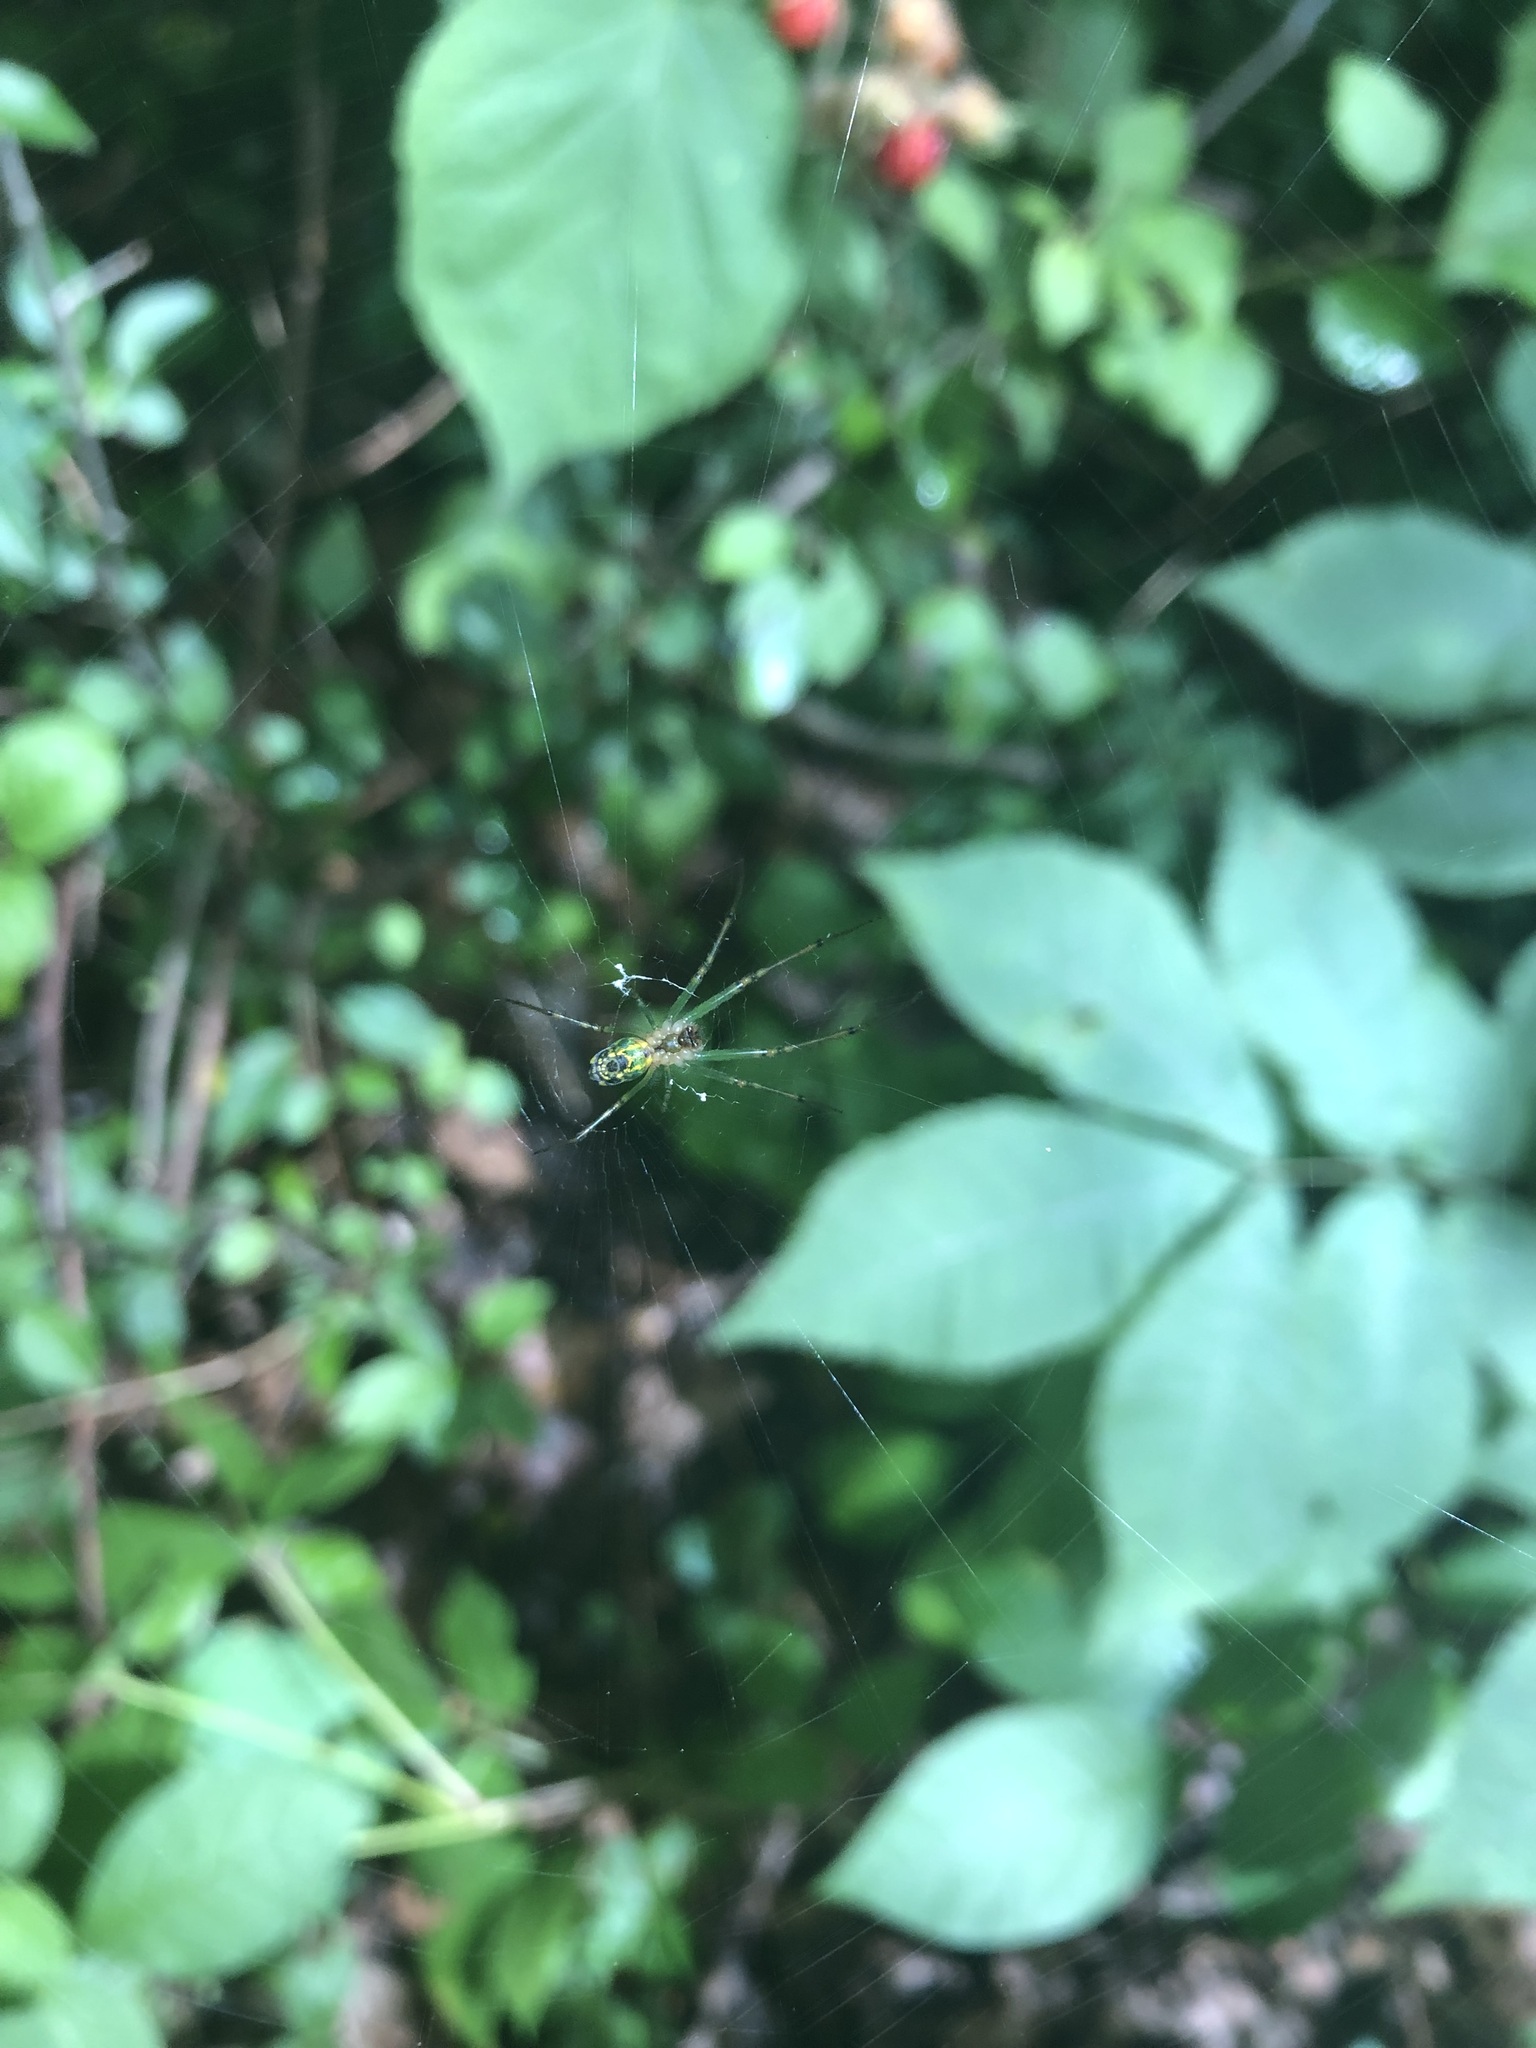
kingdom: Animalia
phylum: Arthropoda
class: Arachnida
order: Araneae
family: Tetragnathidae
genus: Leucauge
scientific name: Leucauge venusta
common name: Longjawed orb weavers
